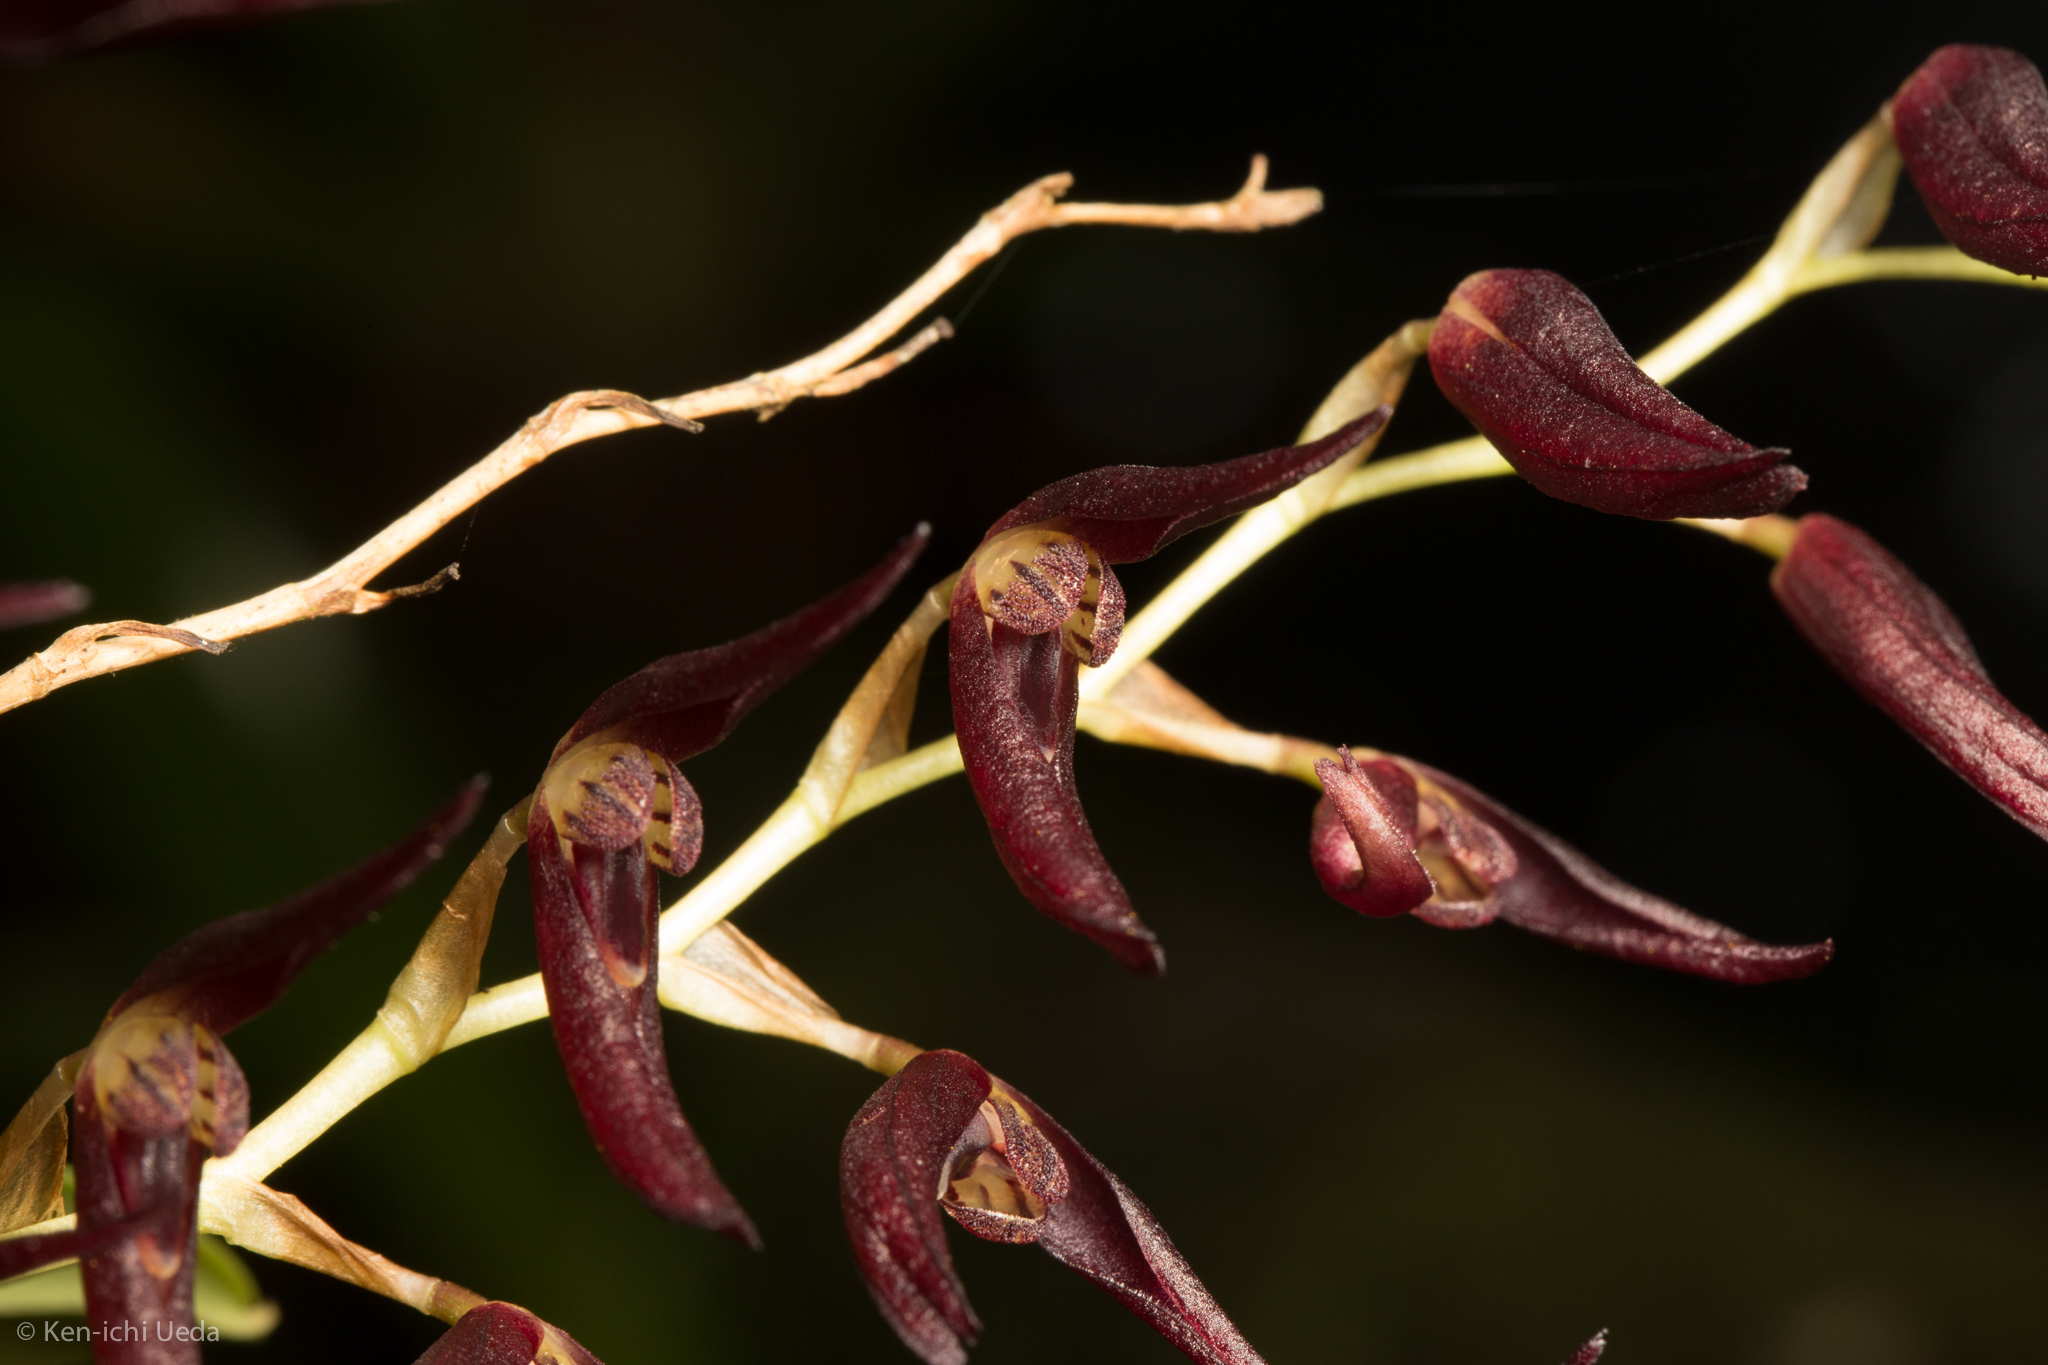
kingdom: Plantae
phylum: Tracheophyta
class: Liliopsida
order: Asparagales
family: Orchidaceae
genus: Stelis
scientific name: Stelis megachlamys
